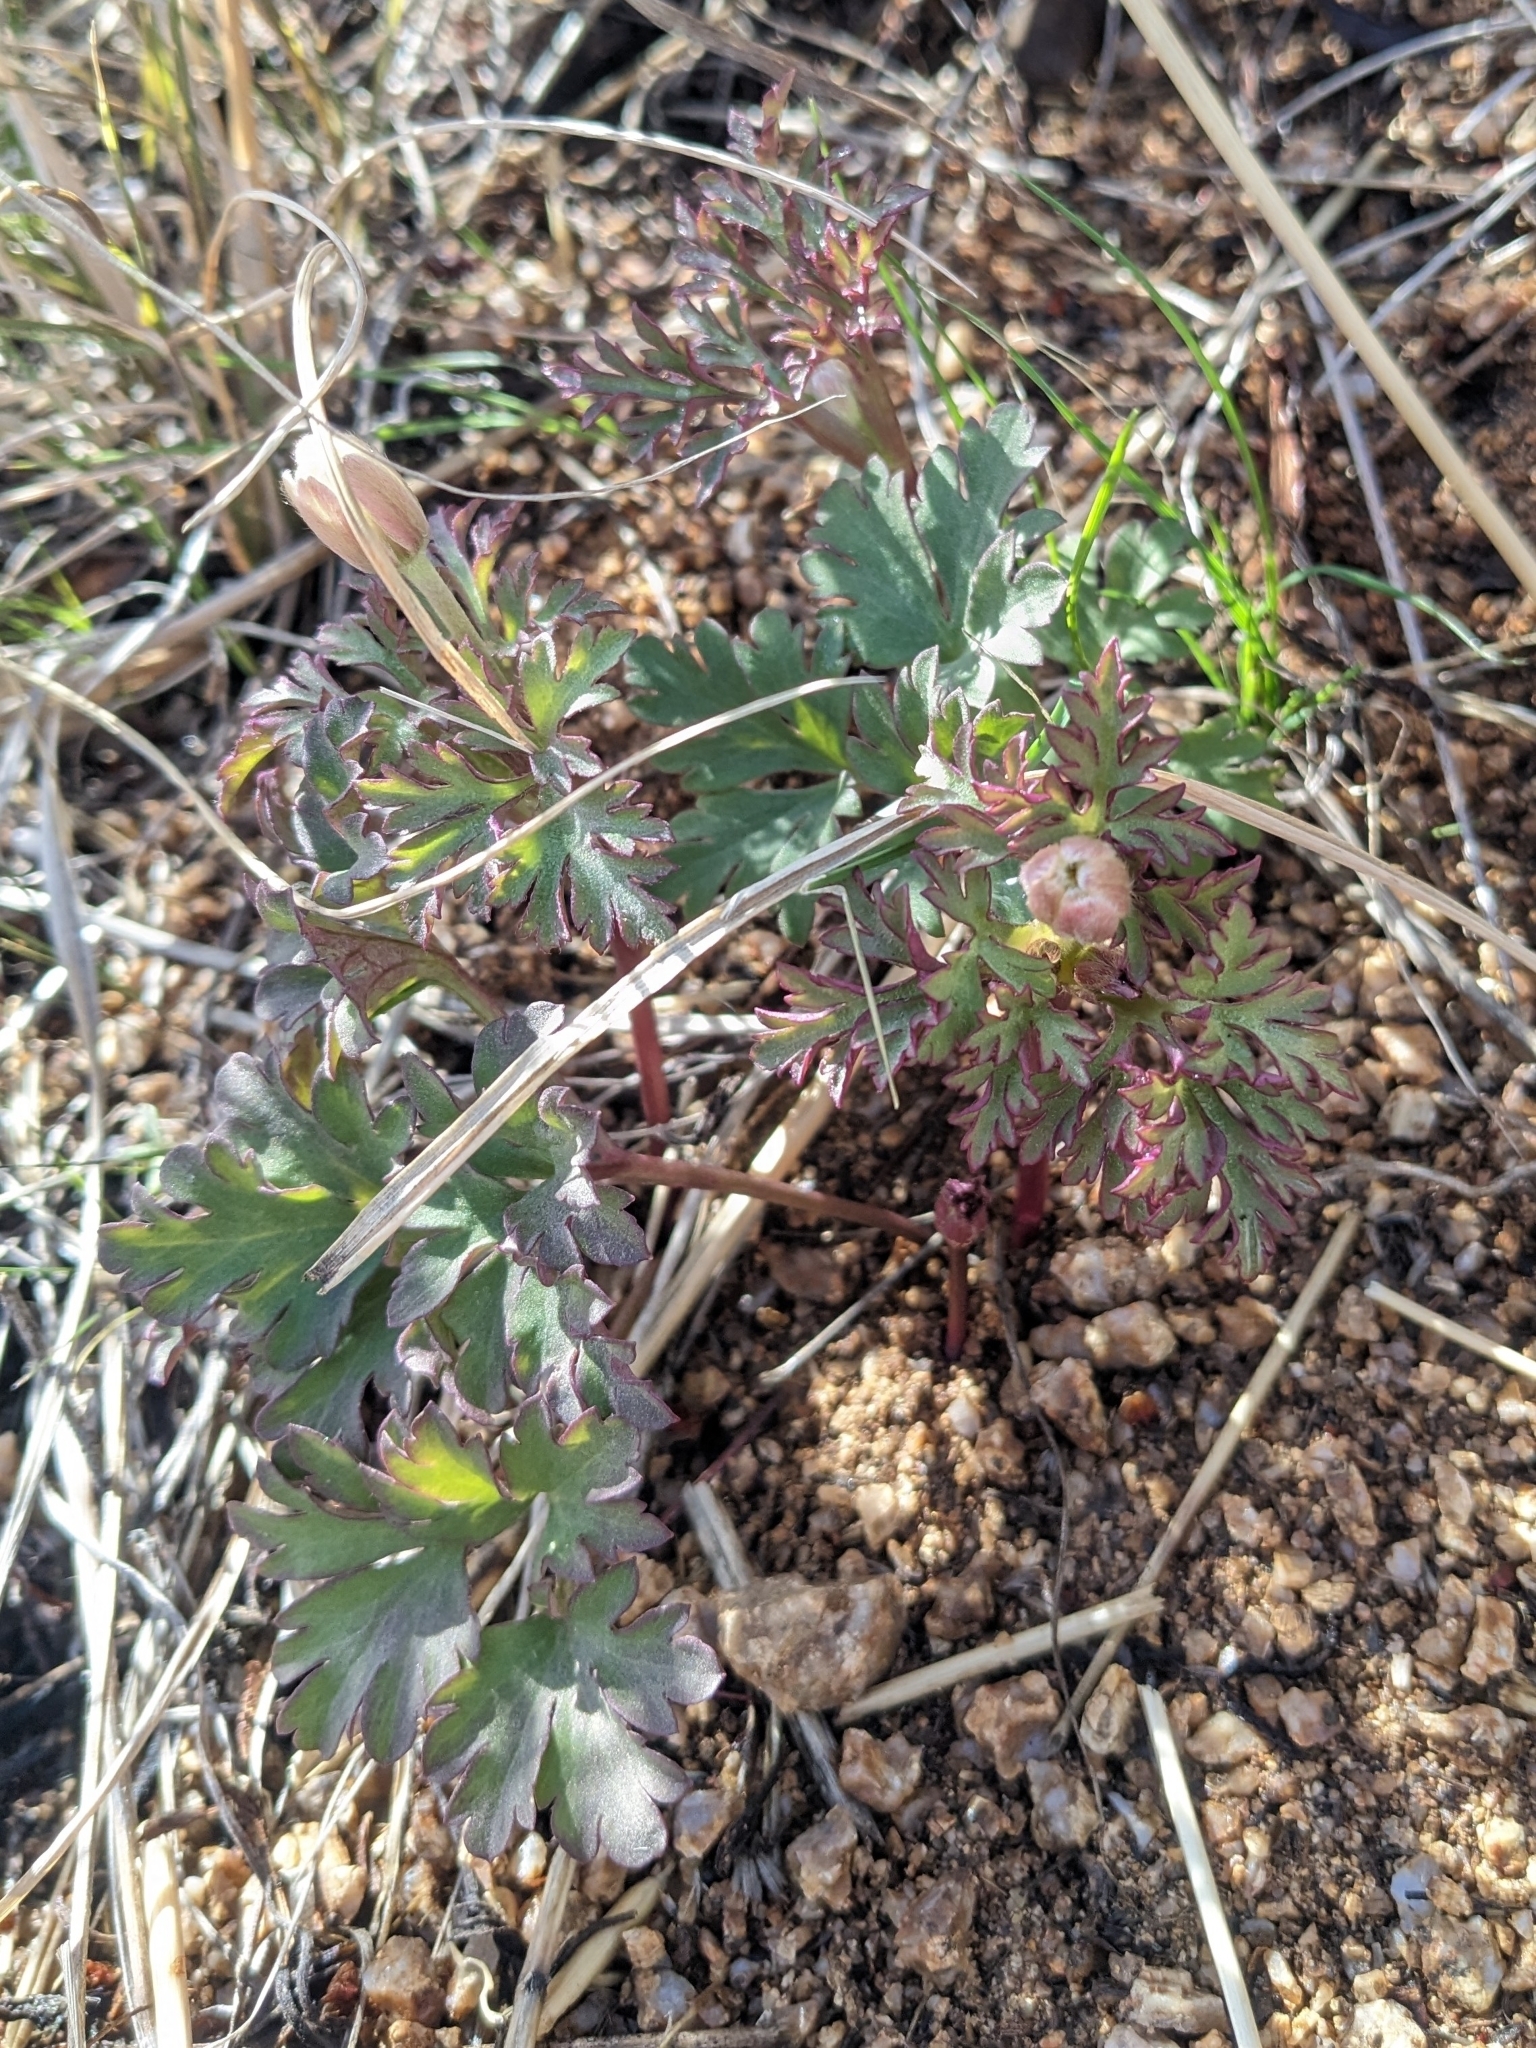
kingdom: Plantae
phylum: Tracheophyta
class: Magnoliopsida
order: Ranunculales
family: Ranunculaceae
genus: Anemone
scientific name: Anemone tuberosa
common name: Desert anemone
